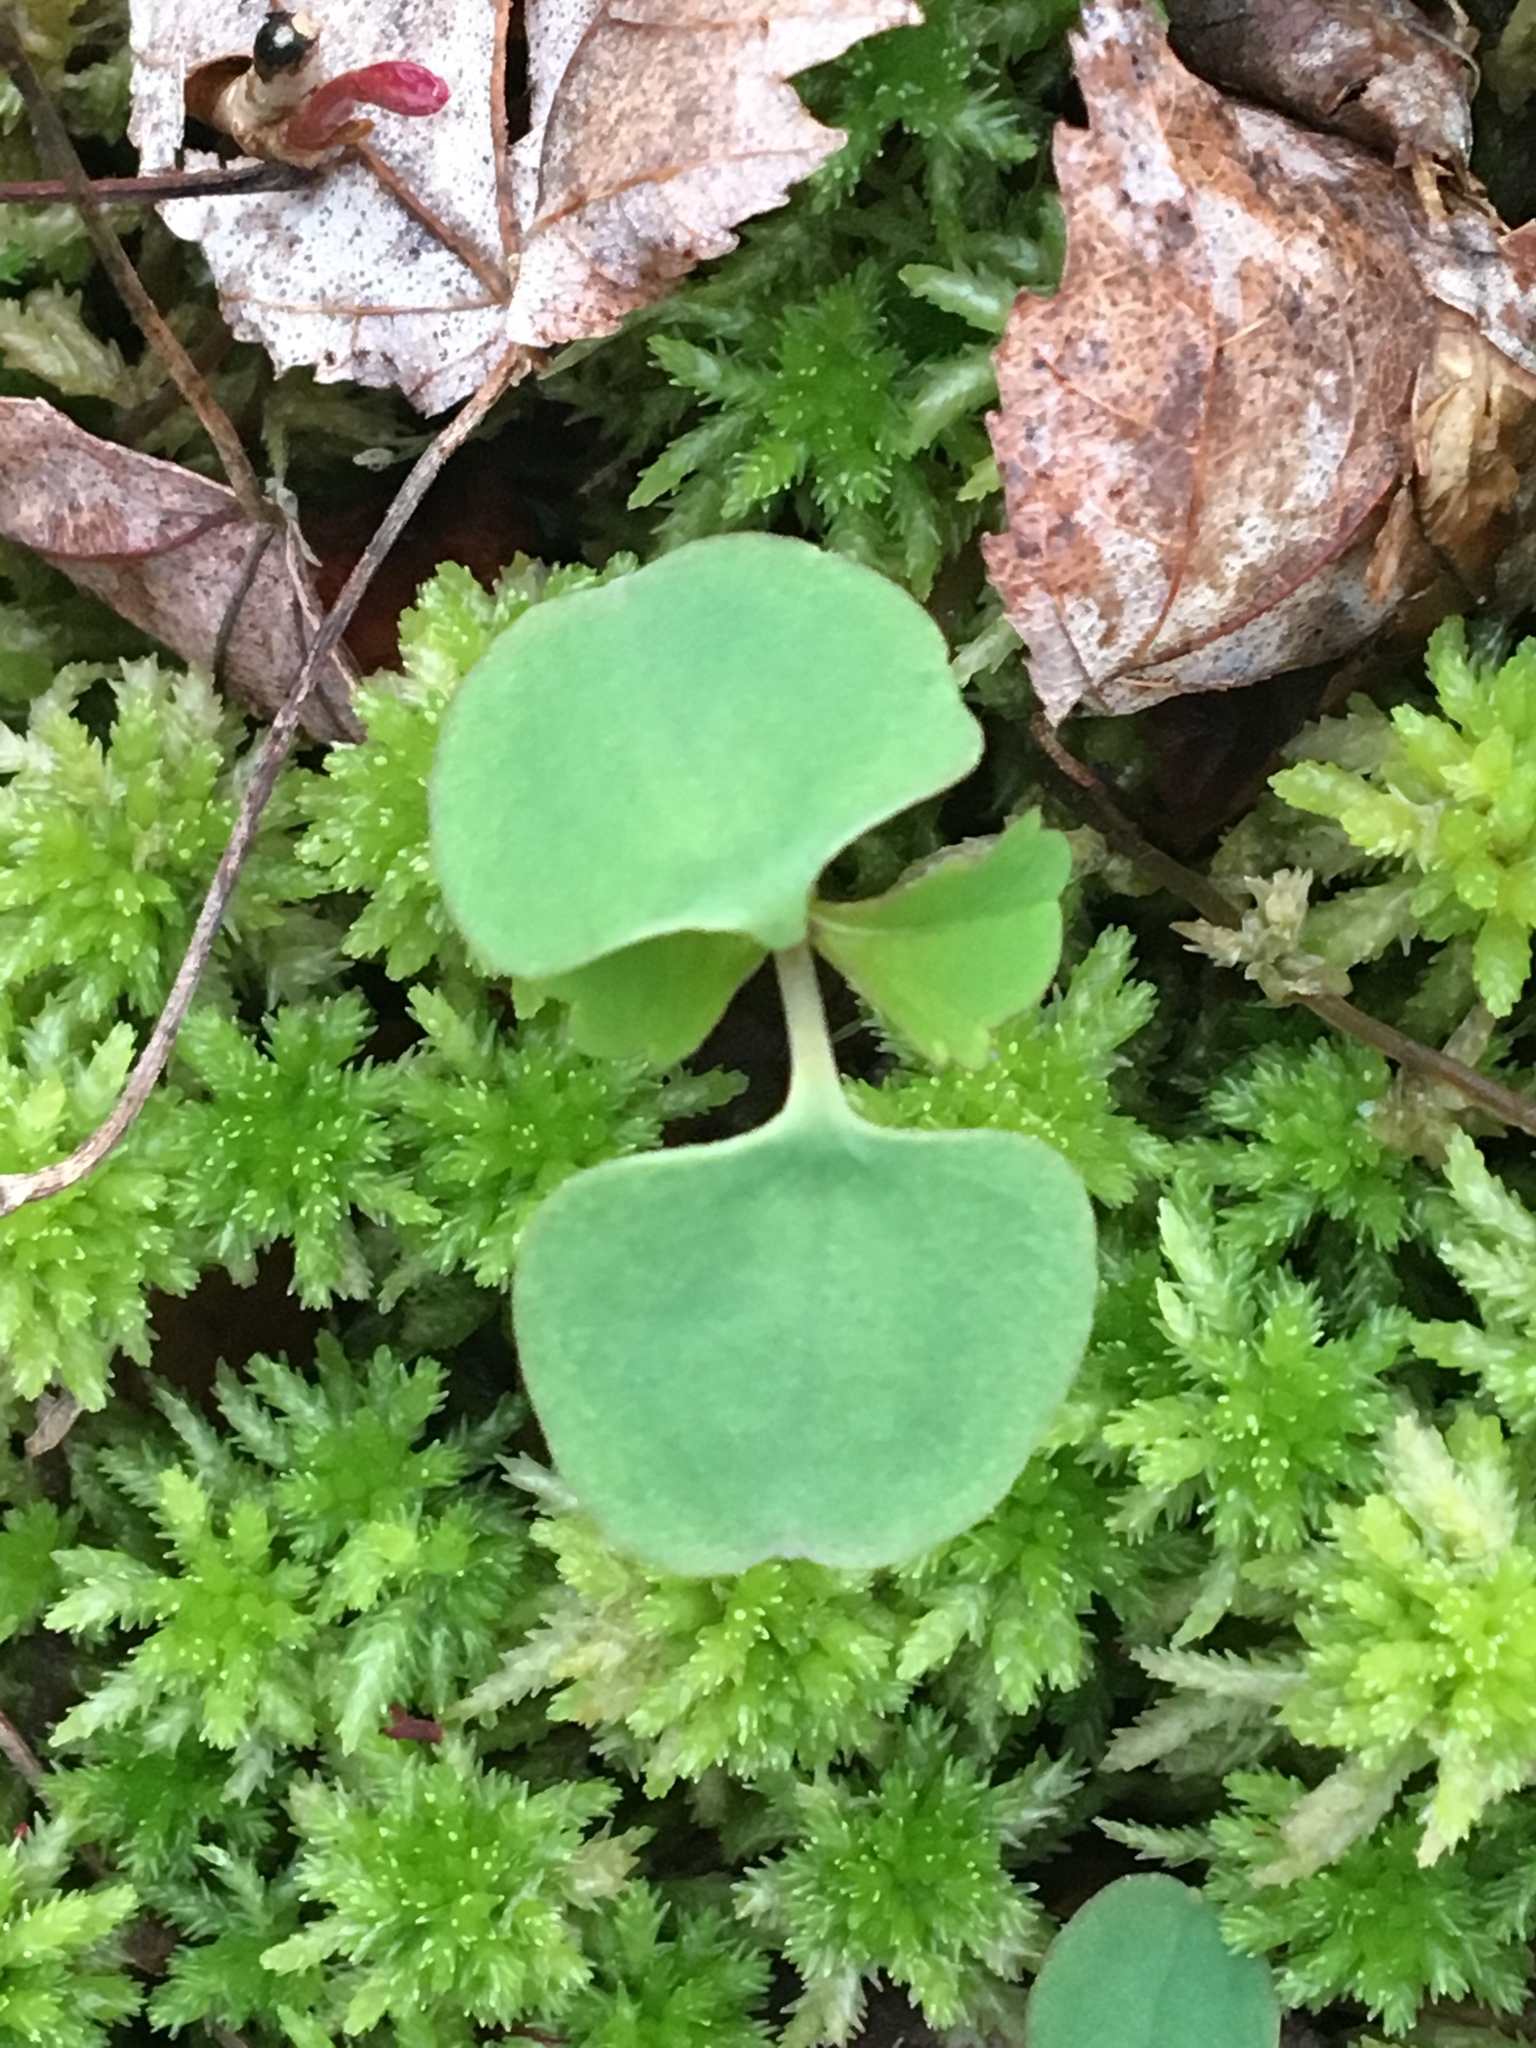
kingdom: Plantae
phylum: Tracheophyta
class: Magnoliopsida
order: Ericales
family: Balsaminaceae
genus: Impatiens
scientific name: Impatiens capensis
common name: Orange balsam
